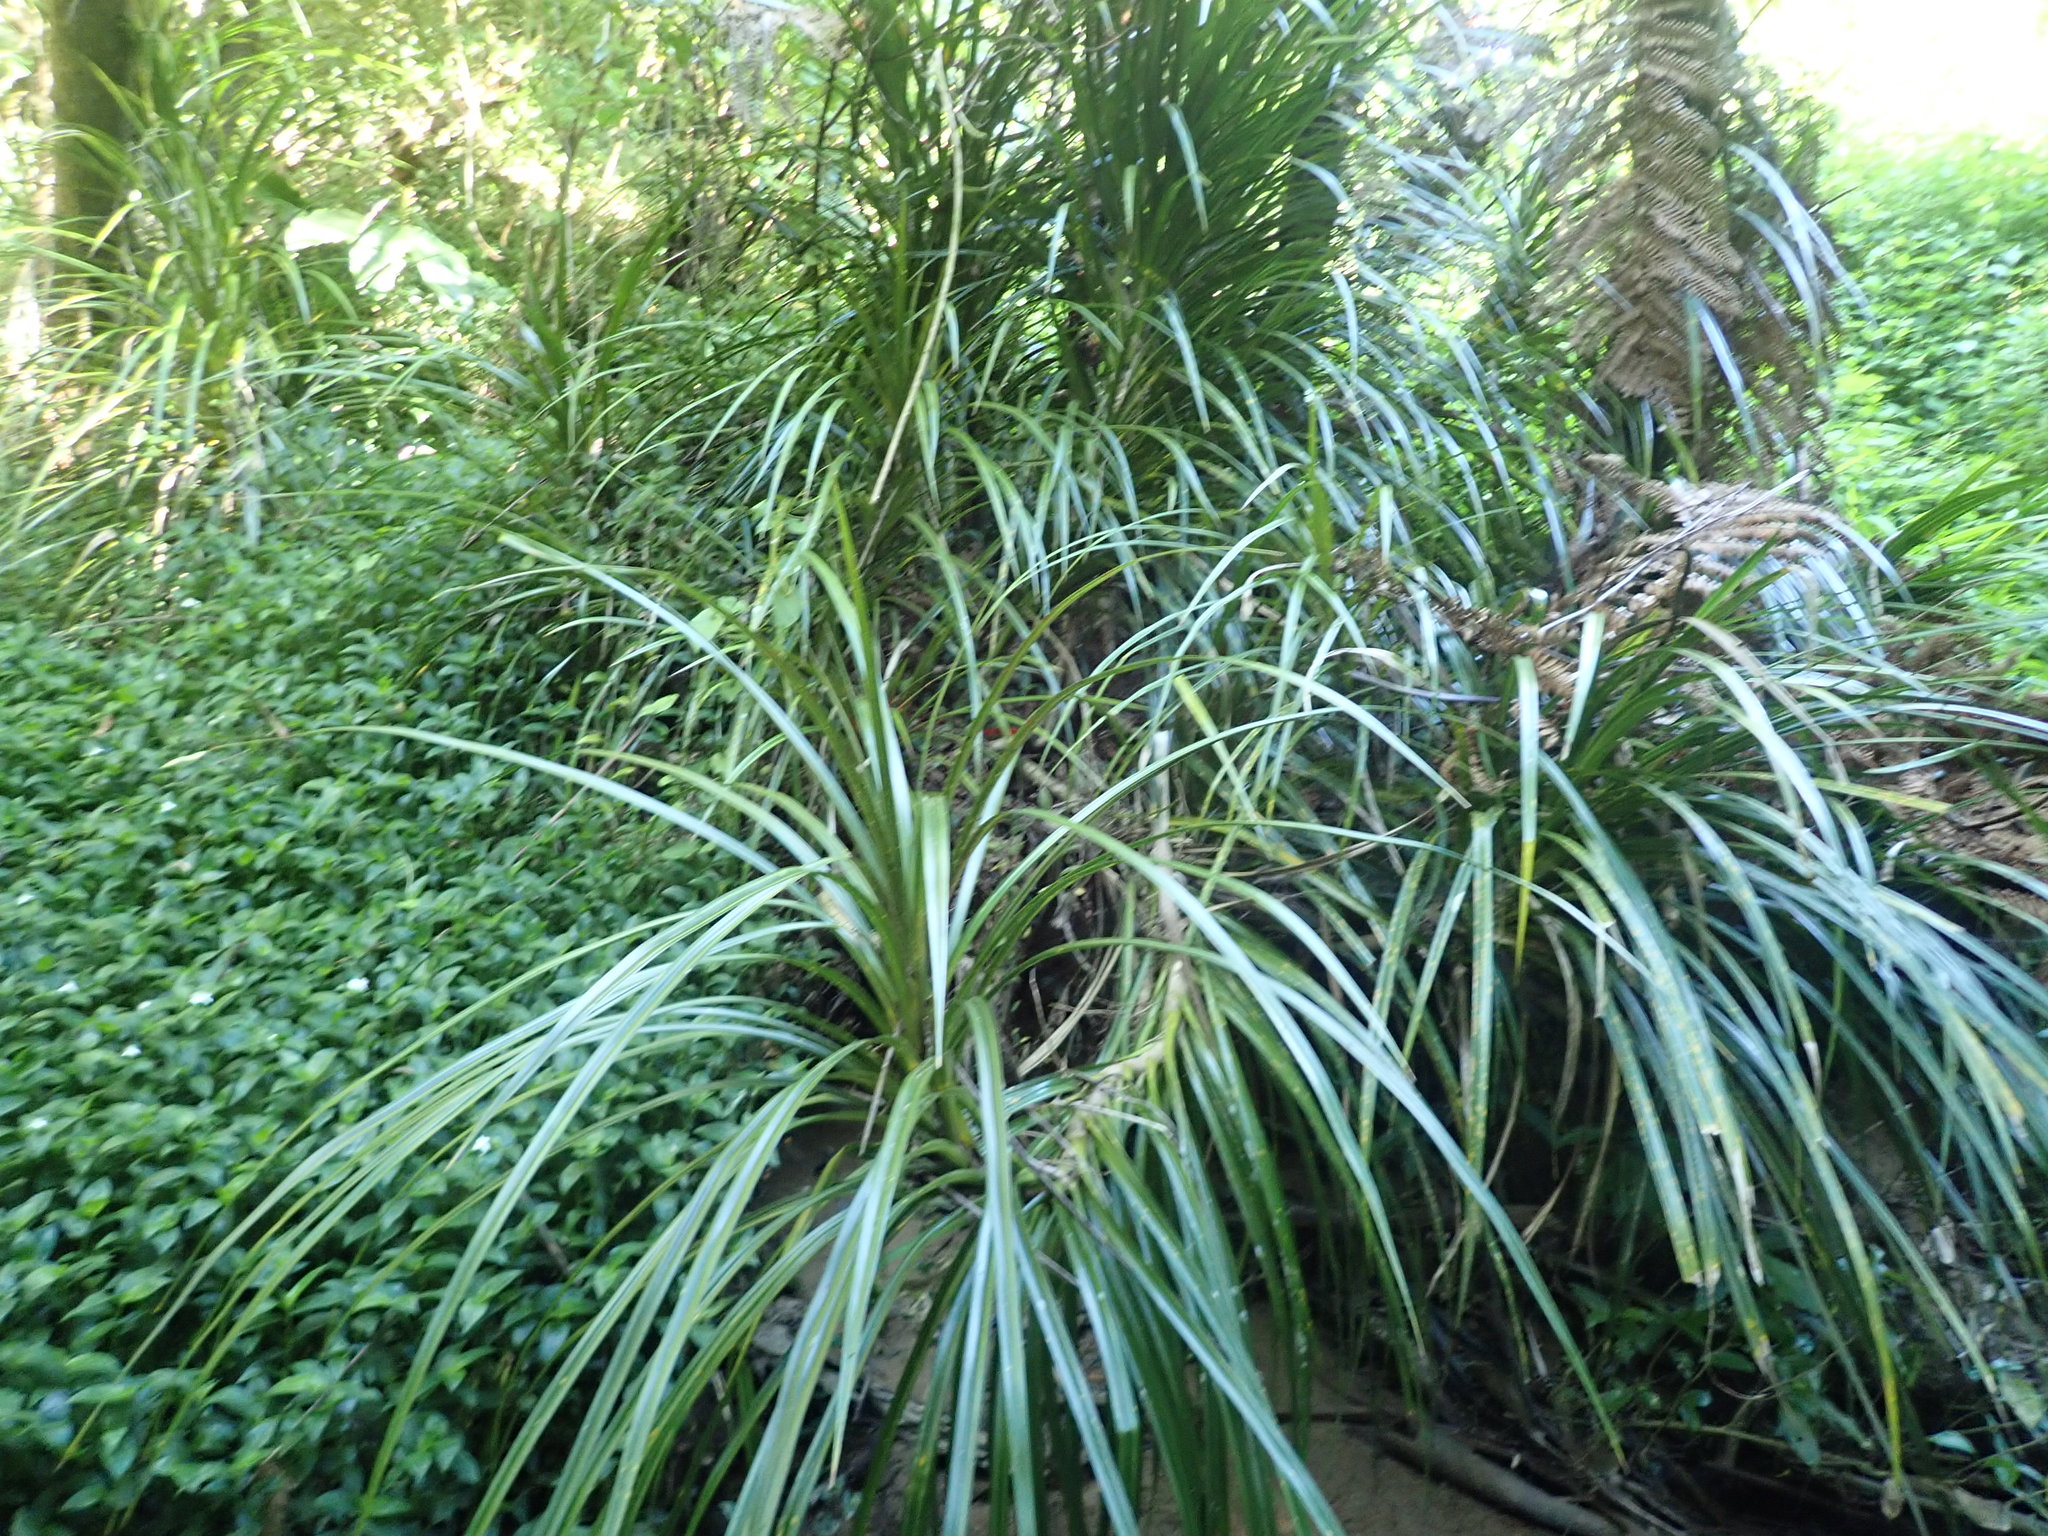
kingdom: Plantae
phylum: Tracheophyta
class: Liliopsida
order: Pandanales
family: Pandanaceae
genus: Freycinetia
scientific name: Freycinetia banksii
